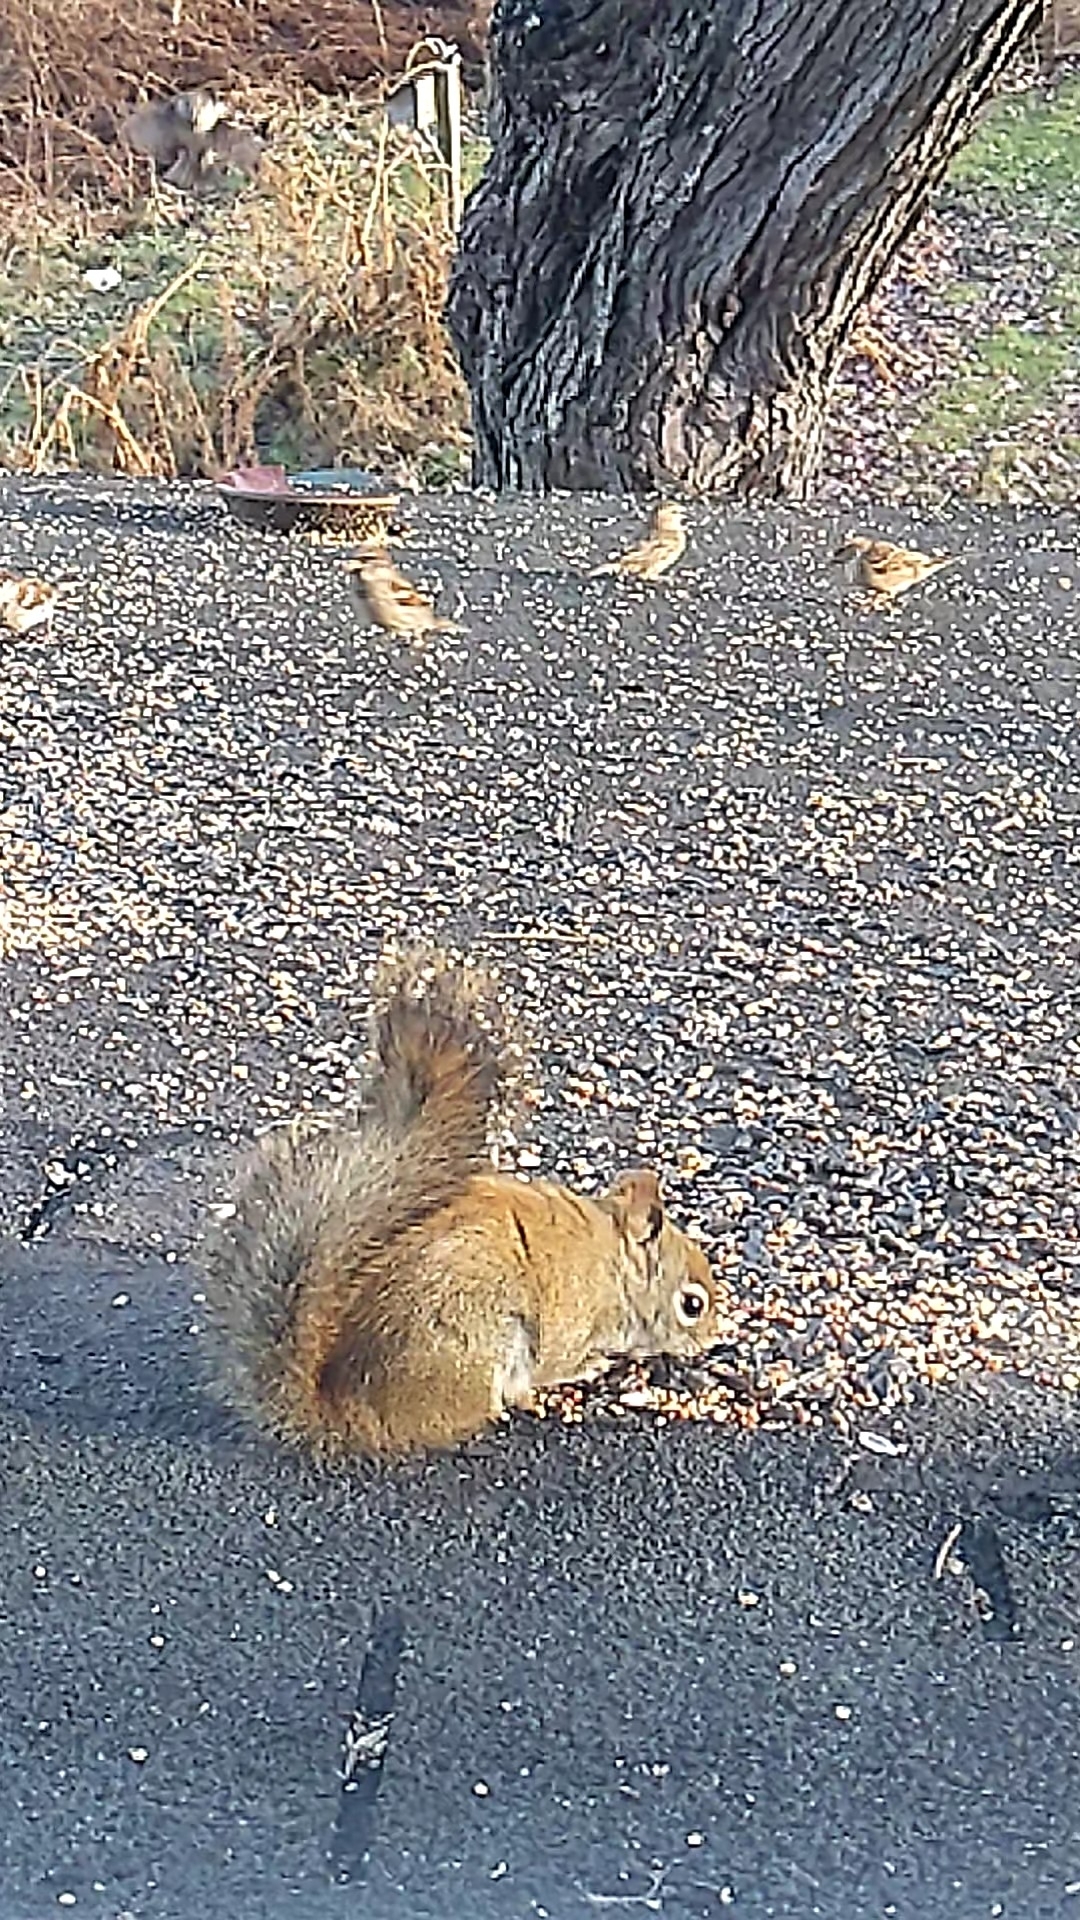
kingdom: Animalia
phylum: Chordata
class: Mammalia
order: Rodentia
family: Sciuridae
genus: Tamiasciurus
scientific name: Tamiasciurus hudsonicus
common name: Red squirrel
